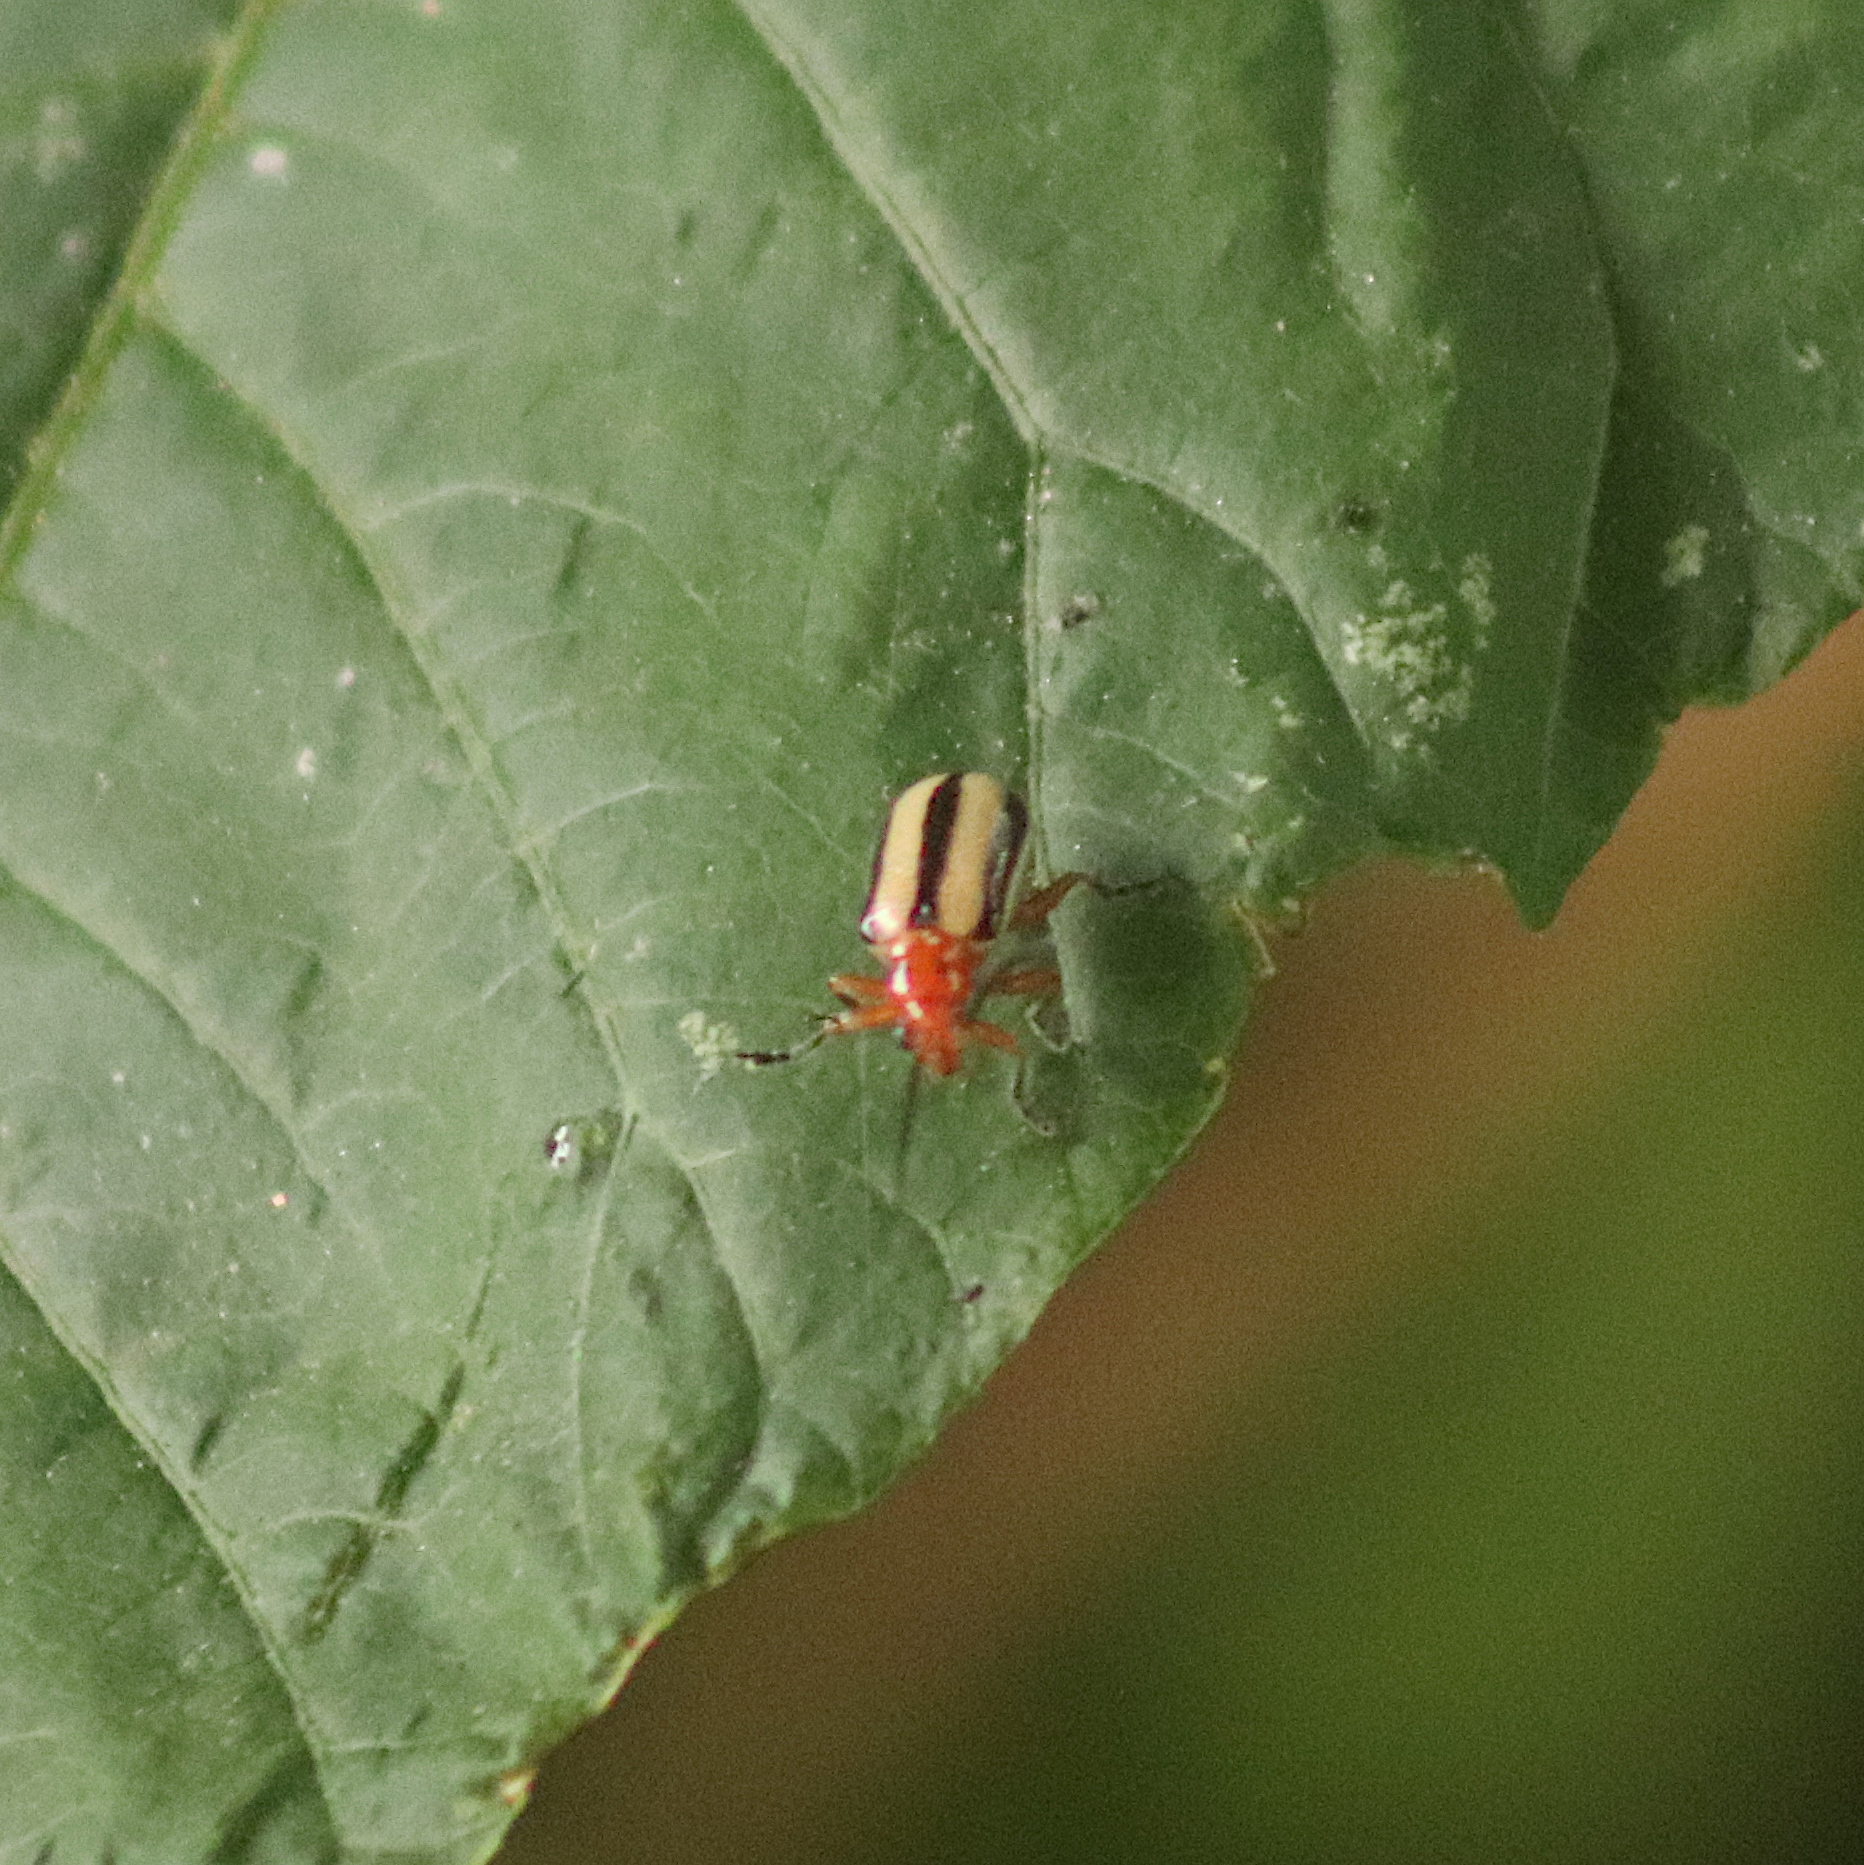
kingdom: Animalia
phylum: Arthropoda
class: Insecta
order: Coleoptera
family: Chrysomelidae
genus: Lema
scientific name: Lema daturaphila
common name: Leaf beetle
